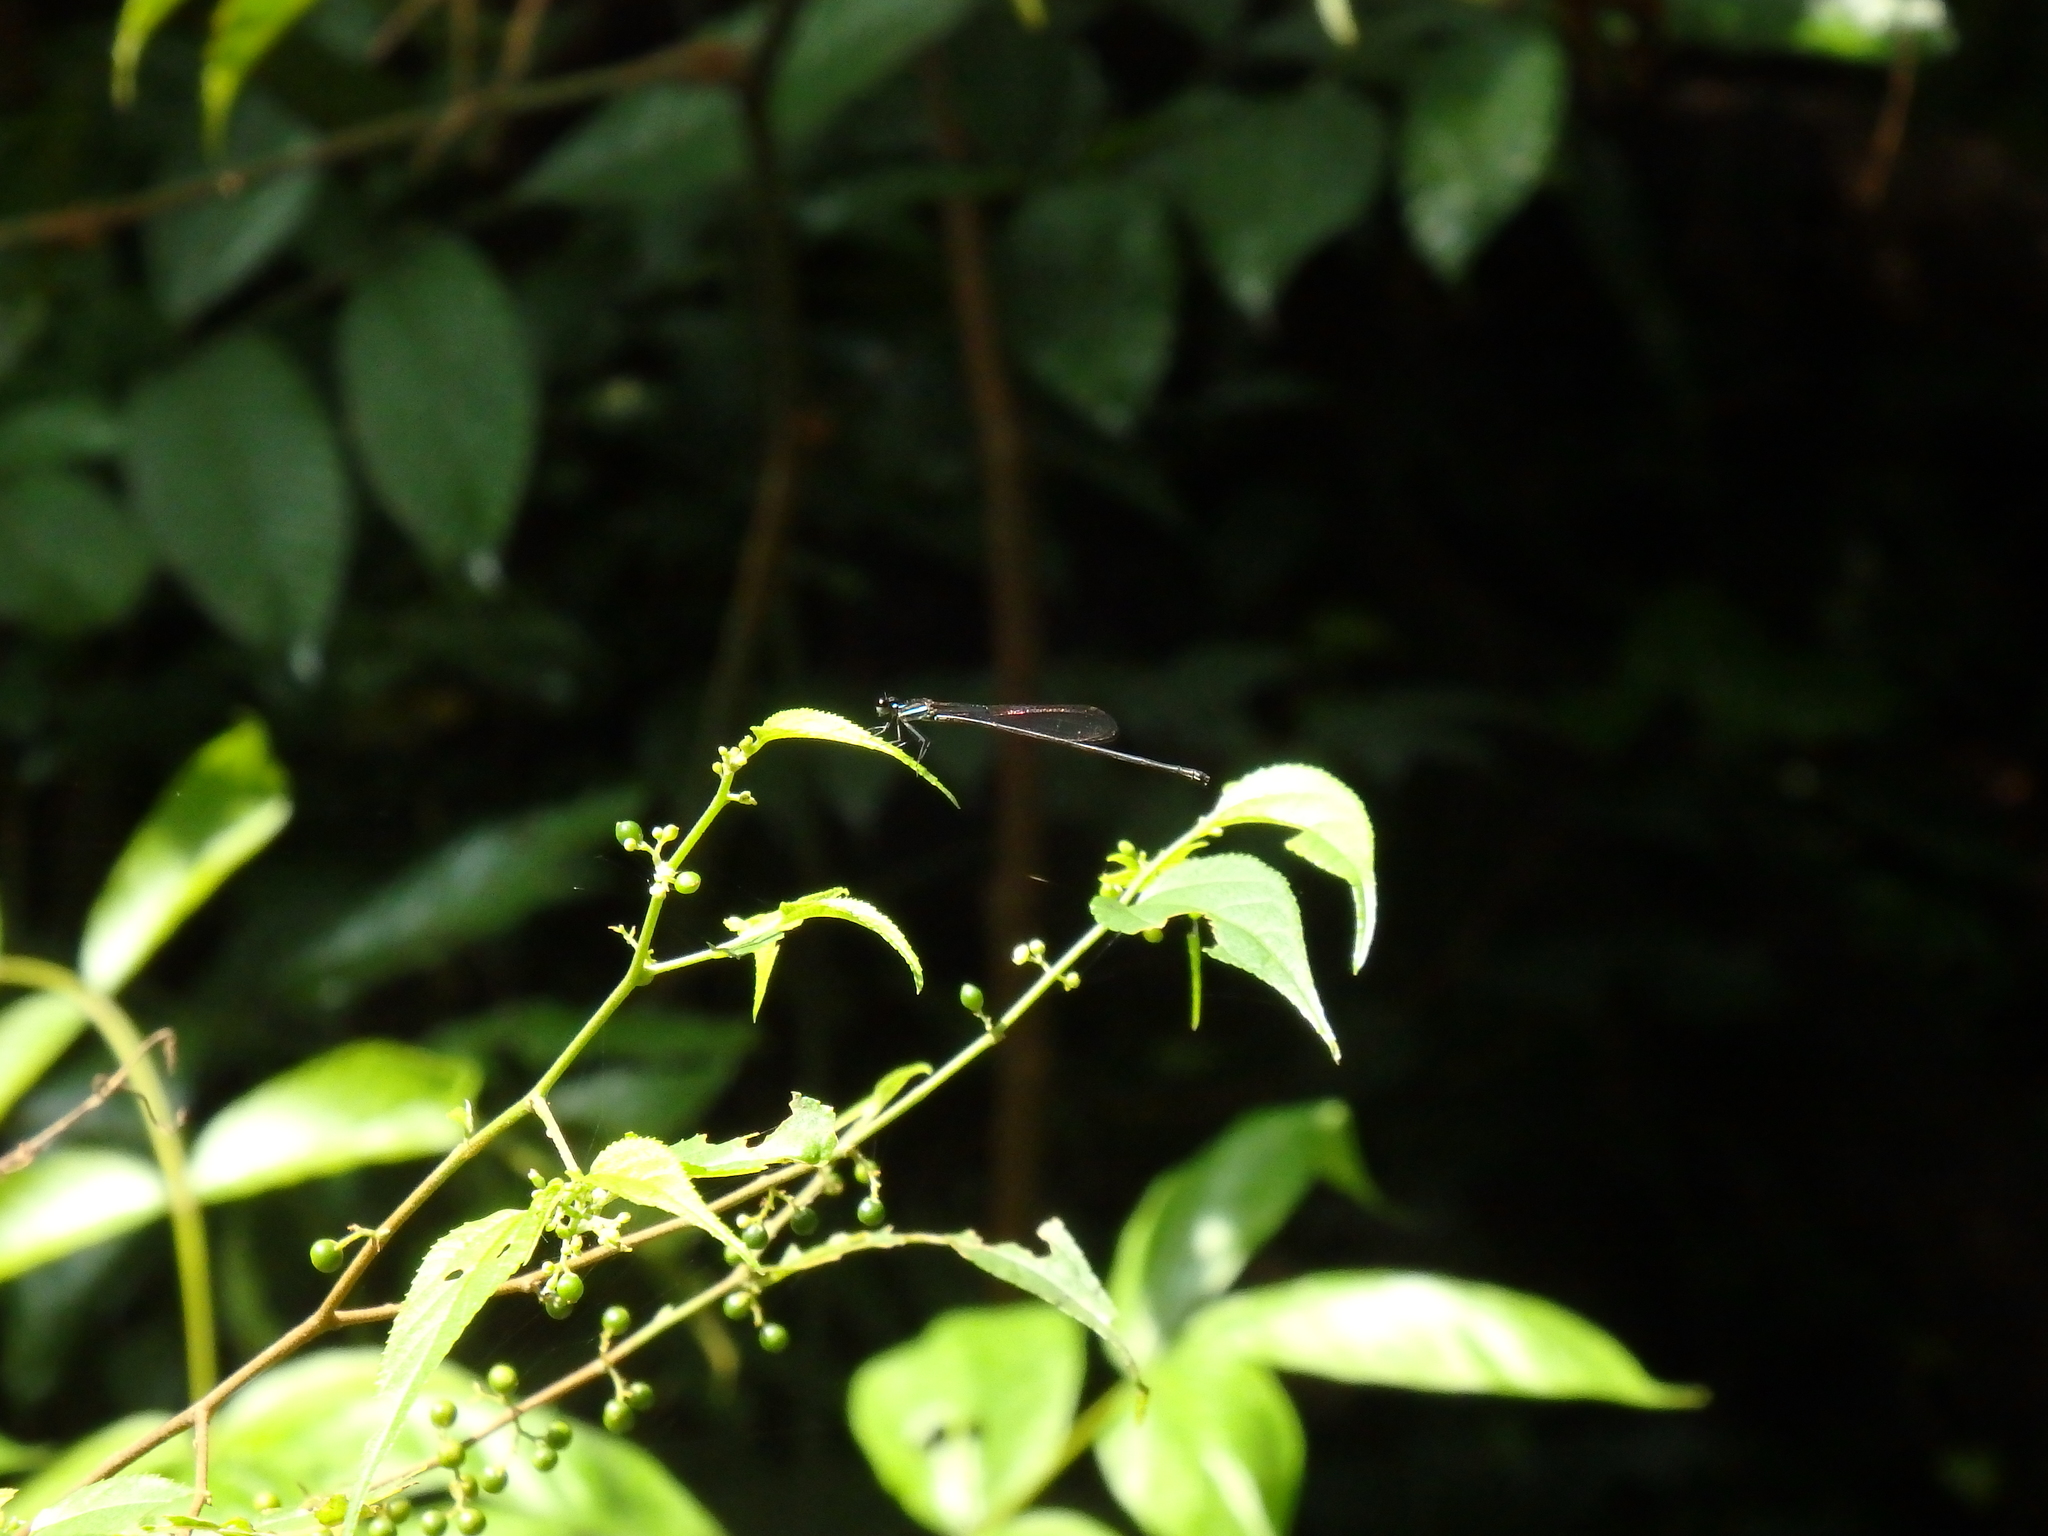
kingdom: Animalia
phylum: Arthropoda
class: Insecta
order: Odonata
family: Platycnemididae
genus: Prodasineura
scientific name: Prodasineura collaris
